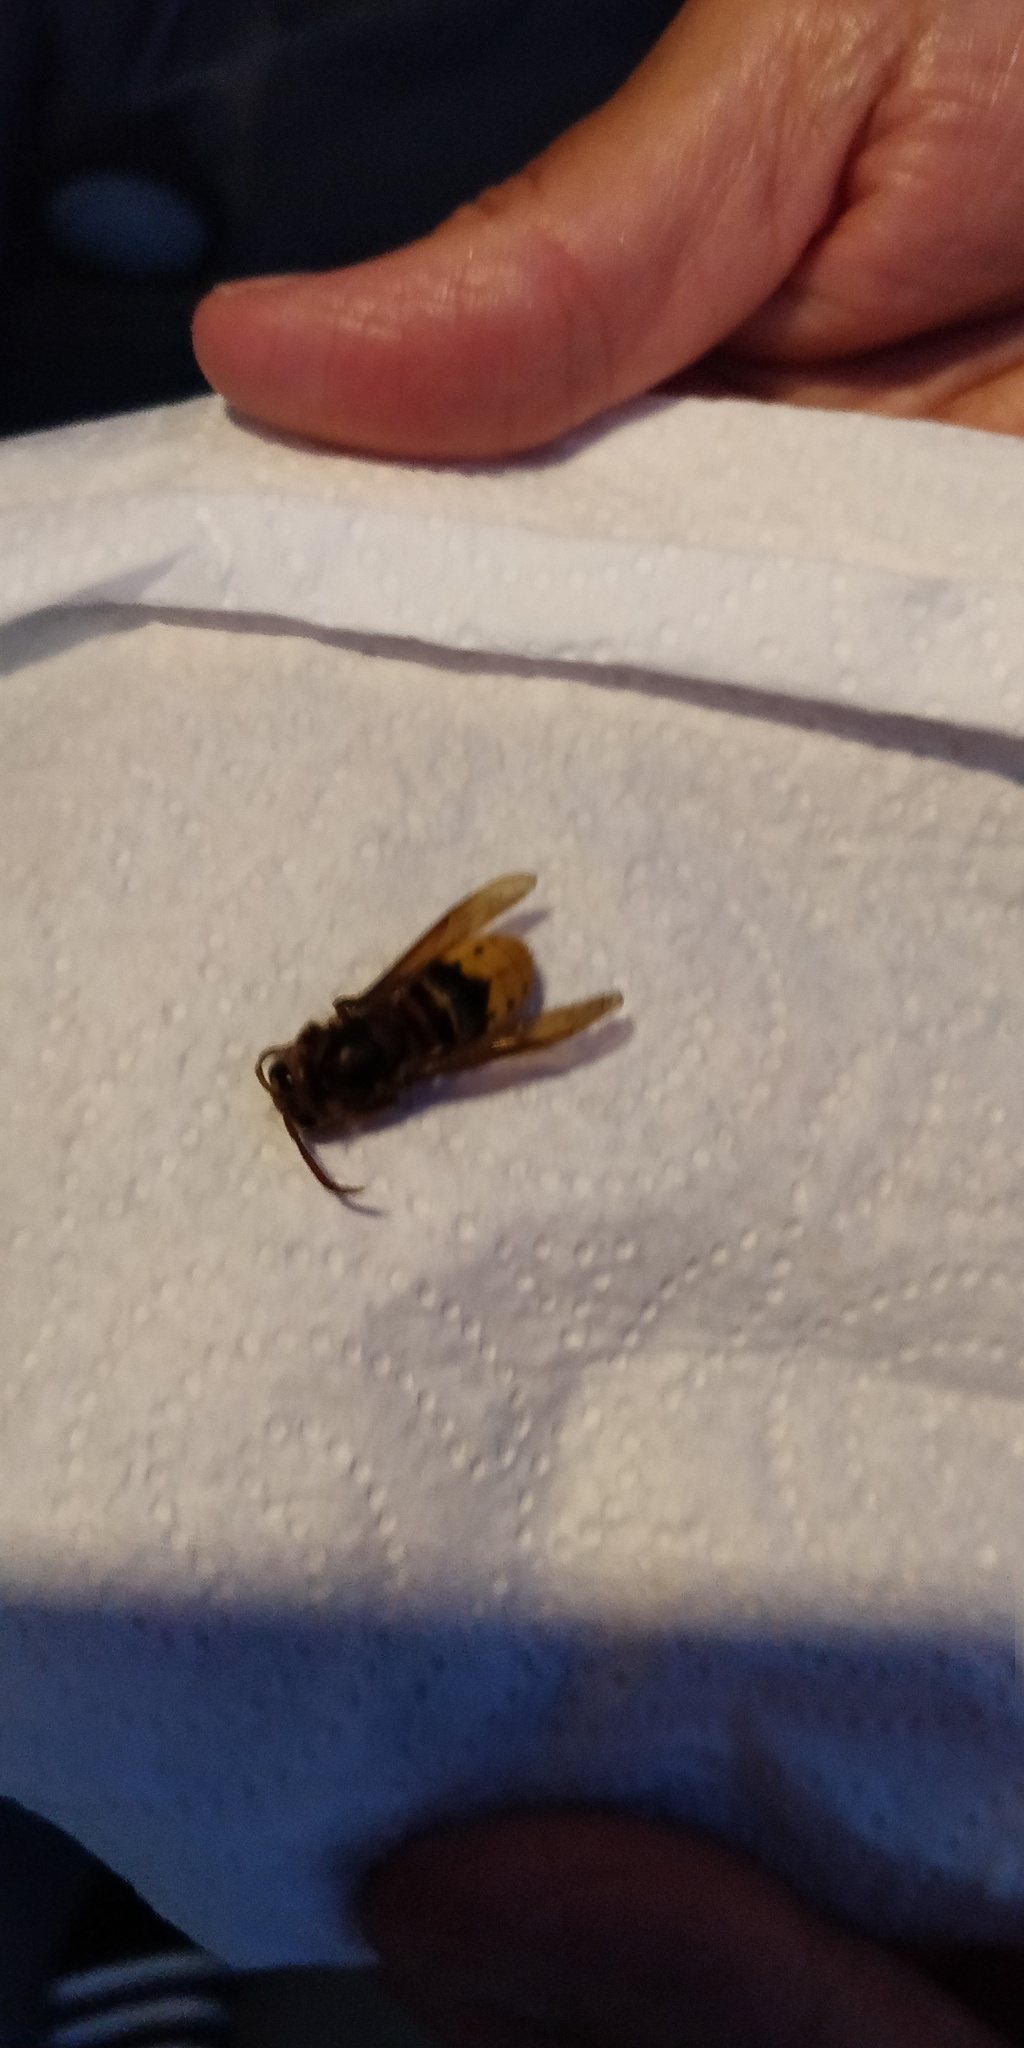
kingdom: Animalia
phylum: Arthropoda
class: Insecta
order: Hymenoptera
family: Vespidae
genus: Vespa
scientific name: Vespa crabro
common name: Hornet
